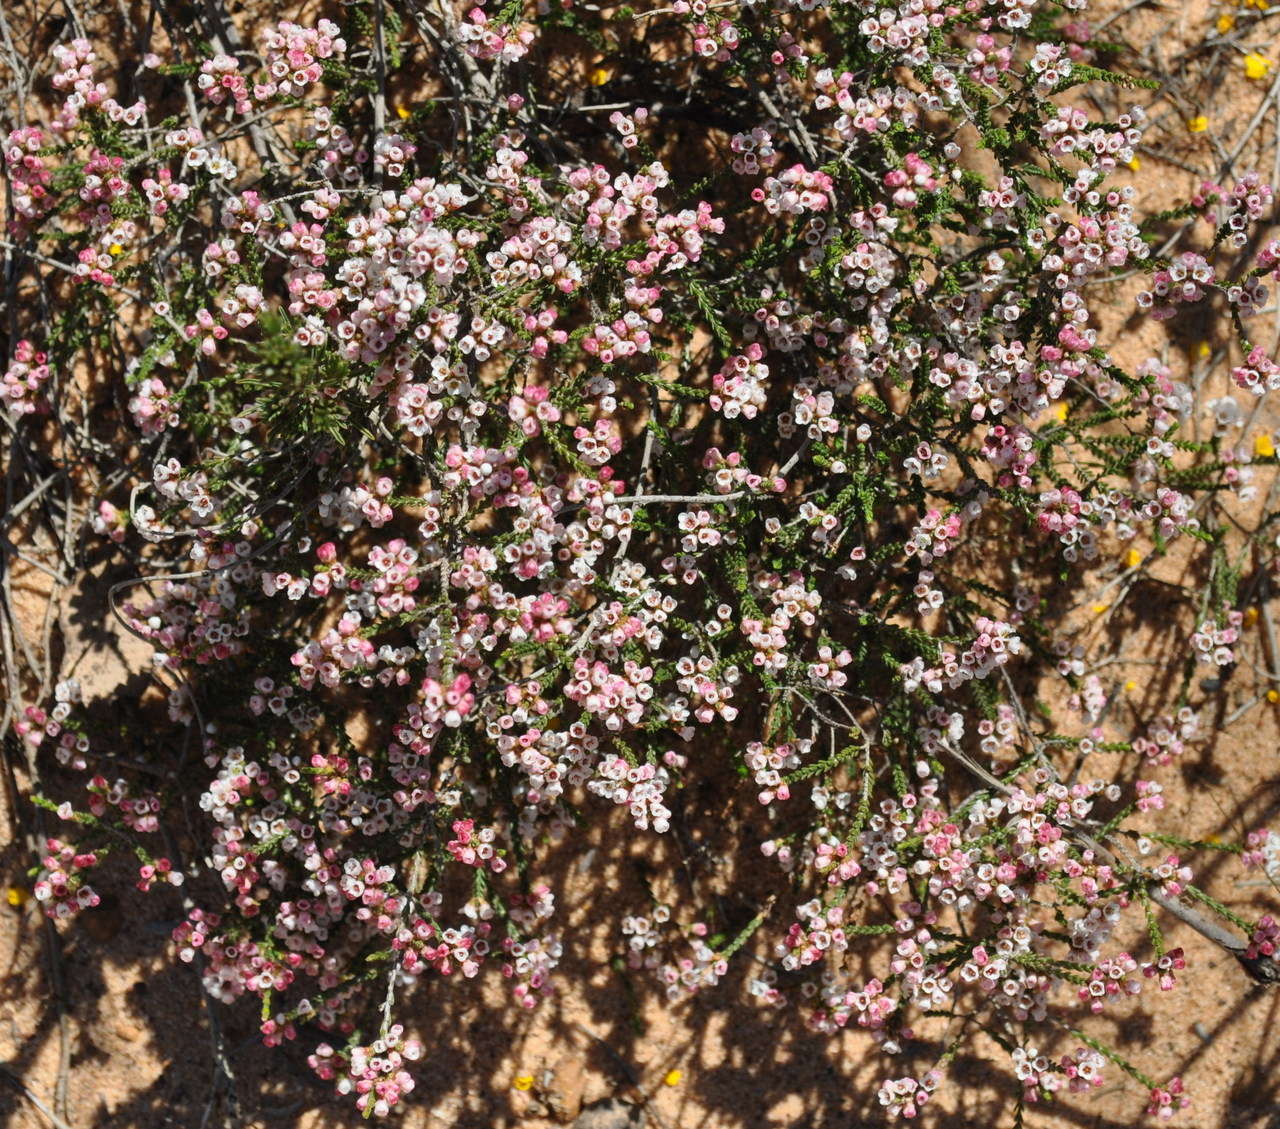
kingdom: Plantae
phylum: Tracheophyta
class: Magnoliopsida
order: Myrtales
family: Myrtaceae
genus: Micromyrtus
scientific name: Micromyrtus ciliata
